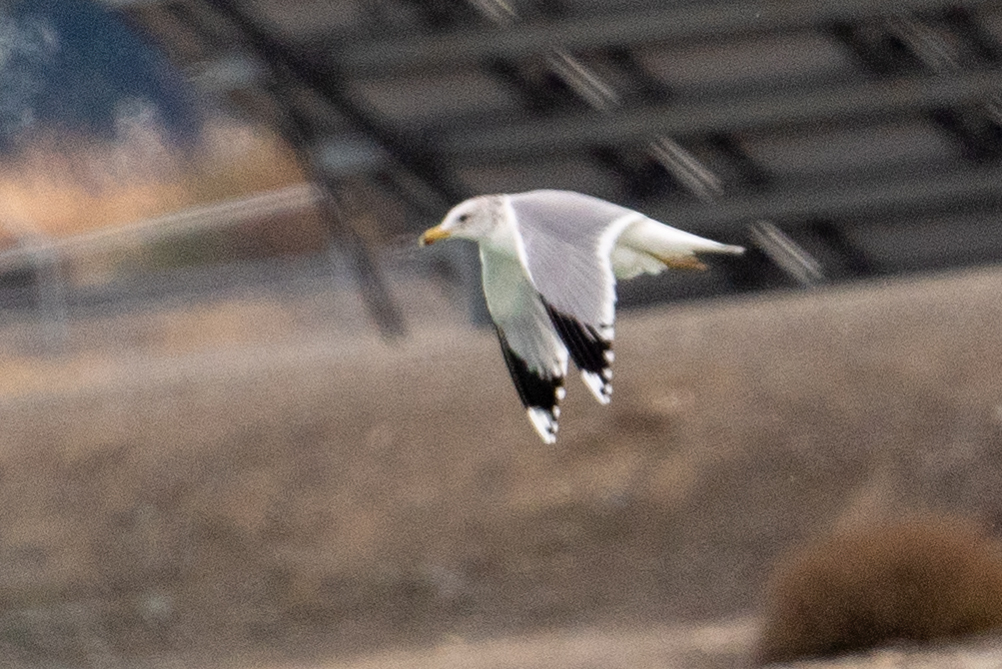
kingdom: Animalia
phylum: Chordata
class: Aves
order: Charadriiformes
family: Laridae
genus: Larus
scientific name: Larus californicus
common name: California gull
